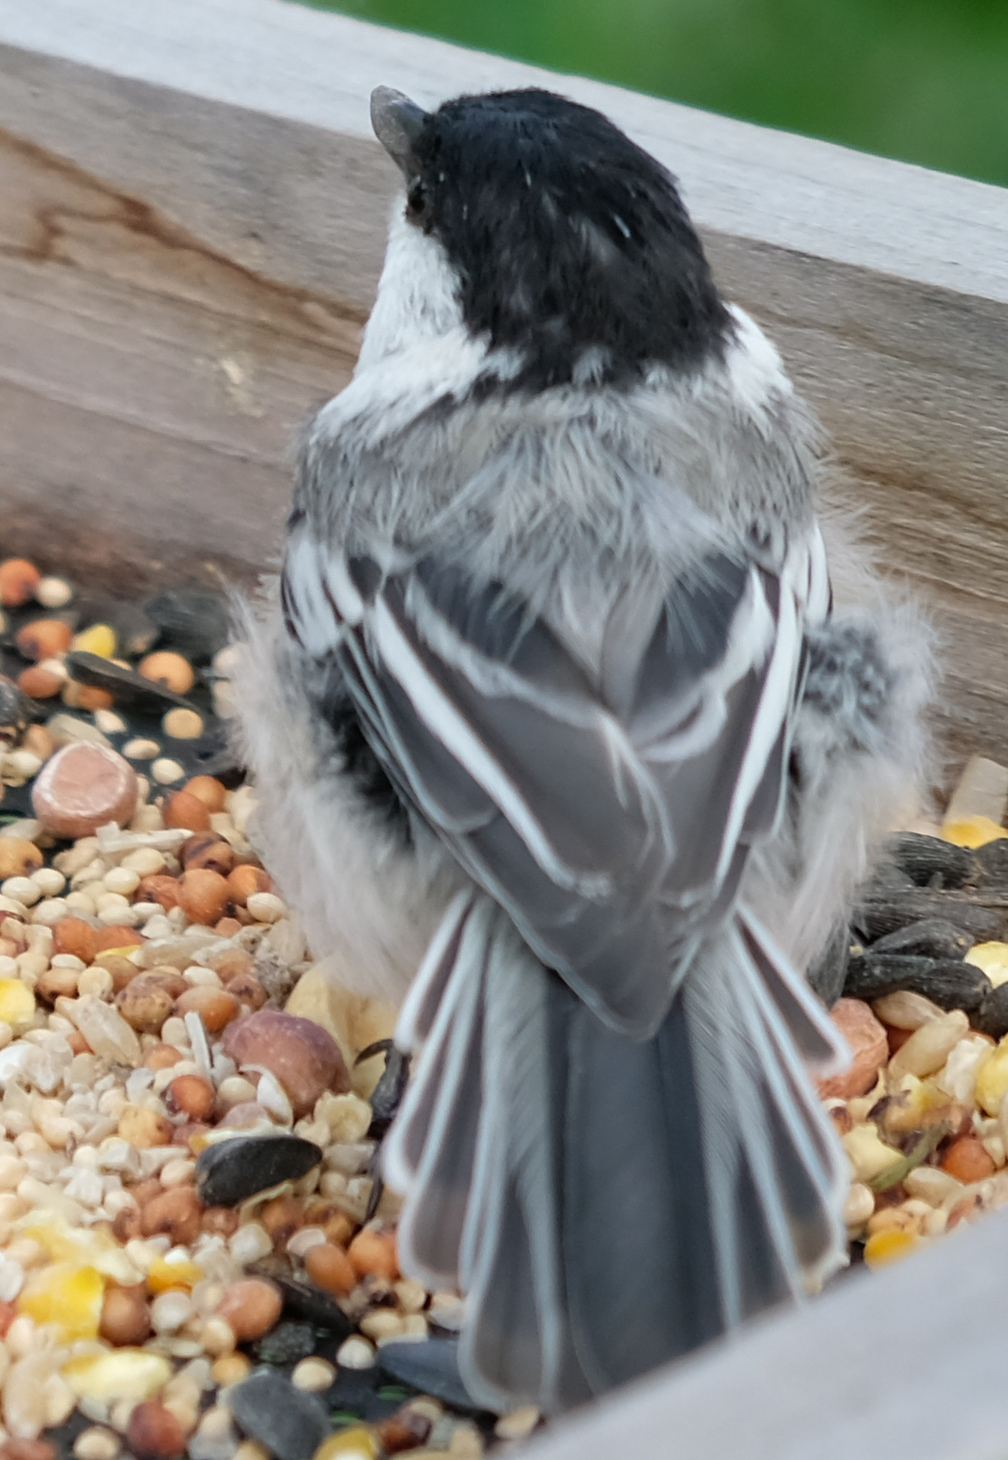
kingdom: Animalia
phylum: Chordata
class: Aves
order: Passeriformes
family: Paridae
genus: Poecile
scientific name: Poecile atricapillus
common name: Black-capped chickadee
